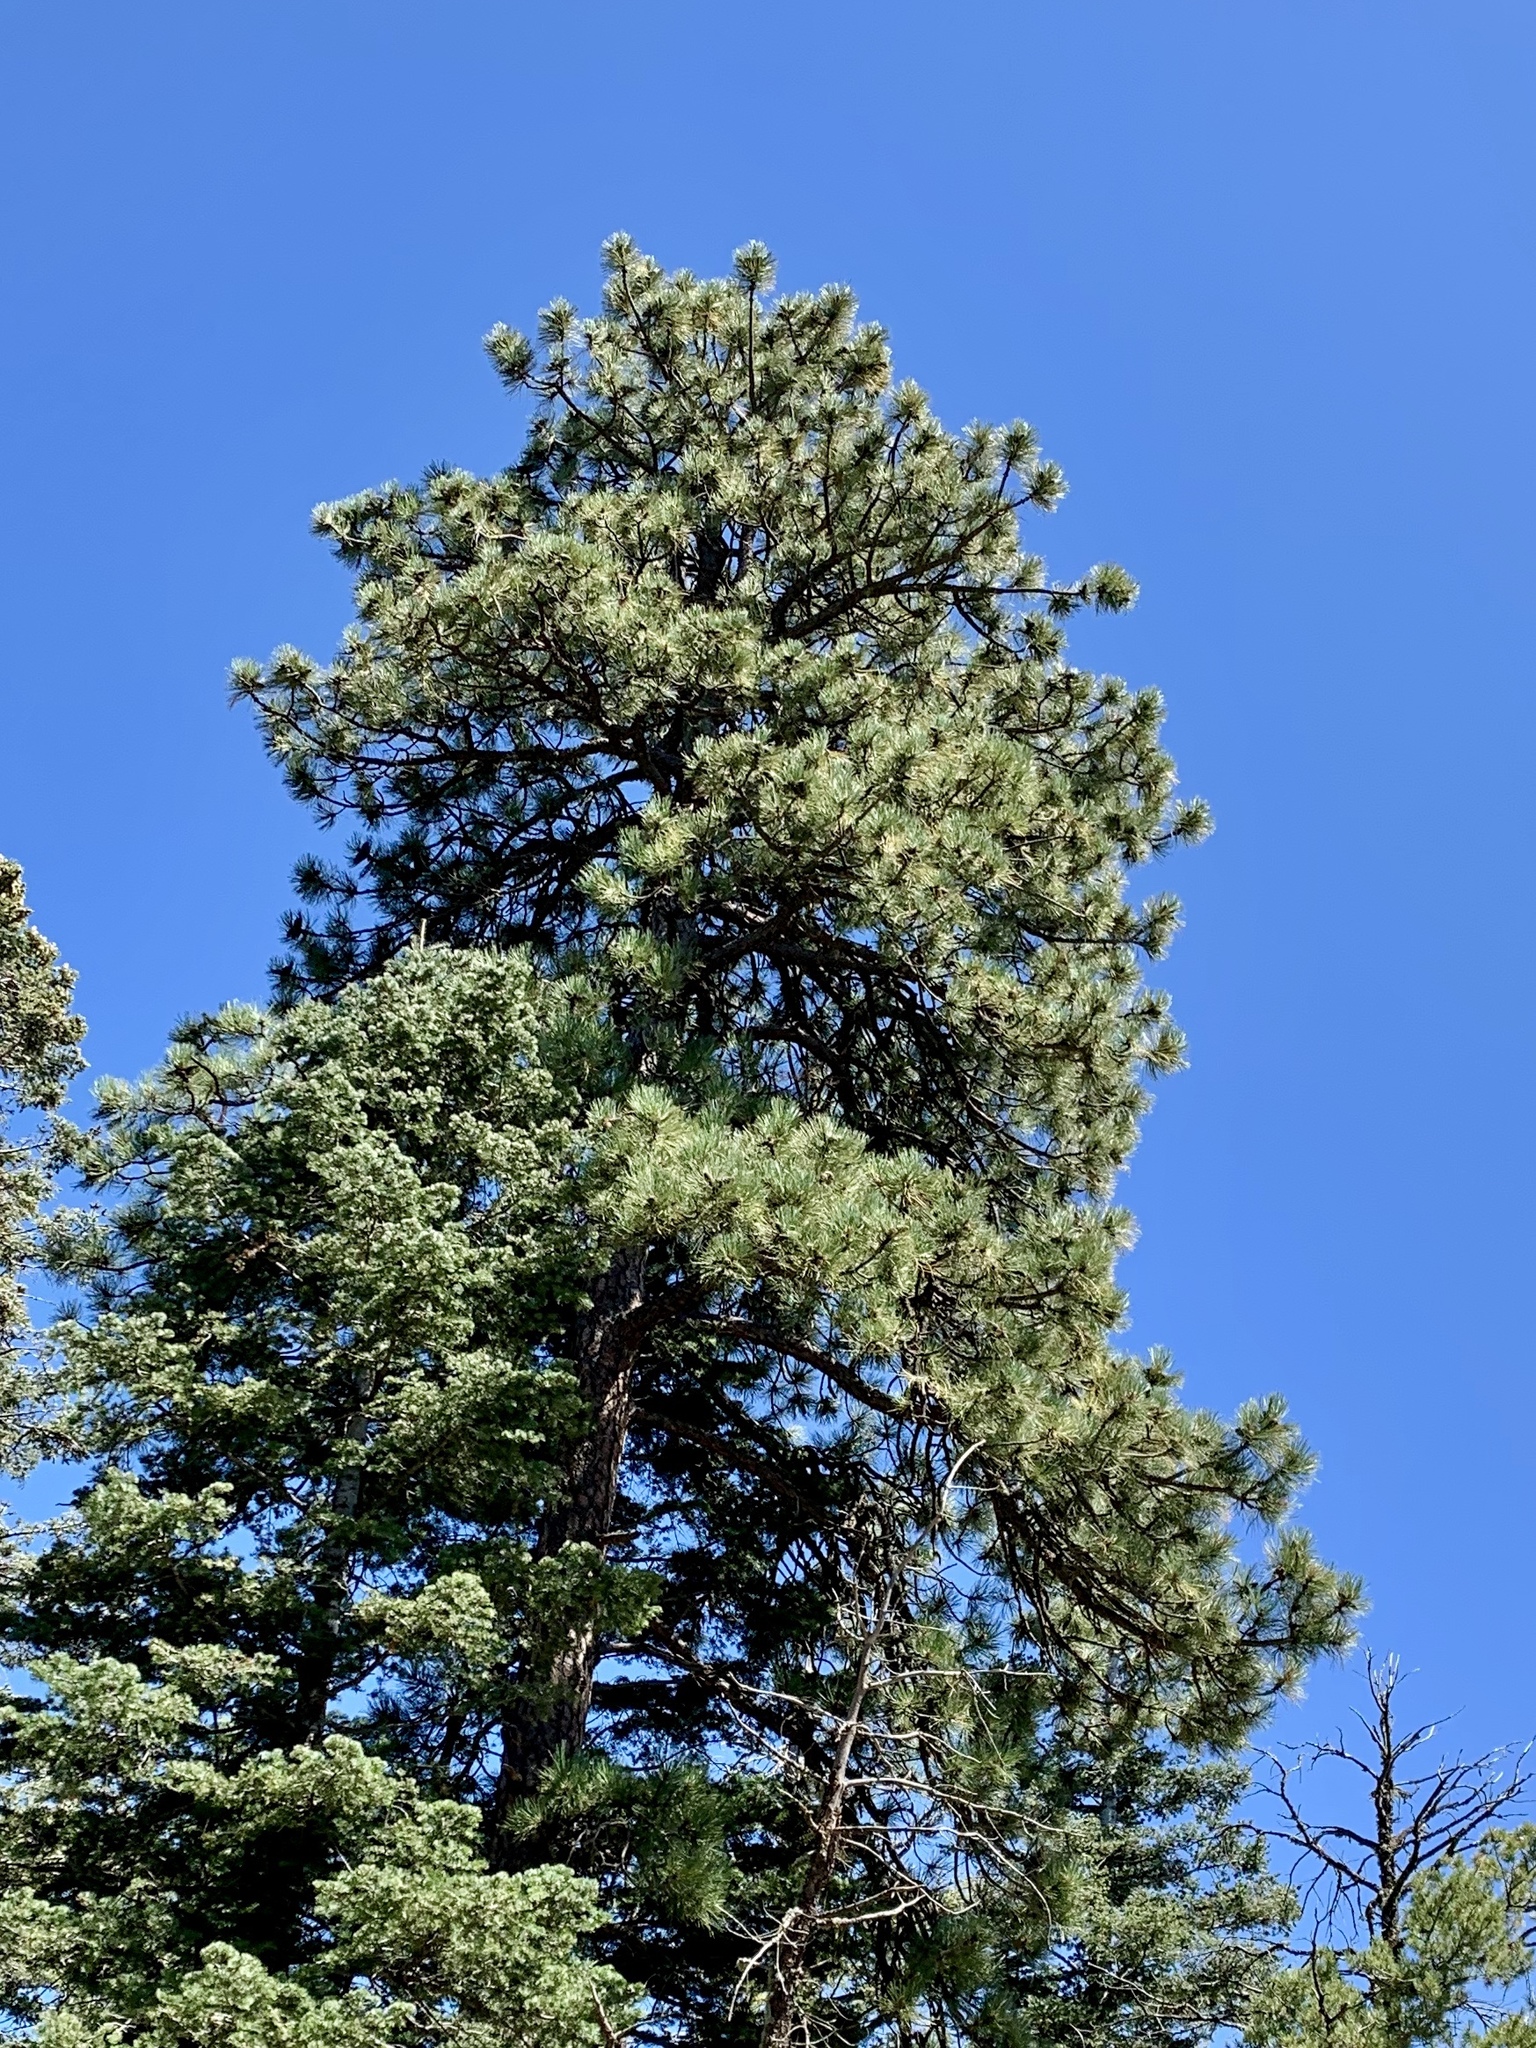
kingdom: Plantae
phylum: Tracheophyta
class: Pinopsida
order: Pinales
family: Pinaceae
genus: Pinus
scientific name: Pinus ponderosa
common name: Western yellow-pine
